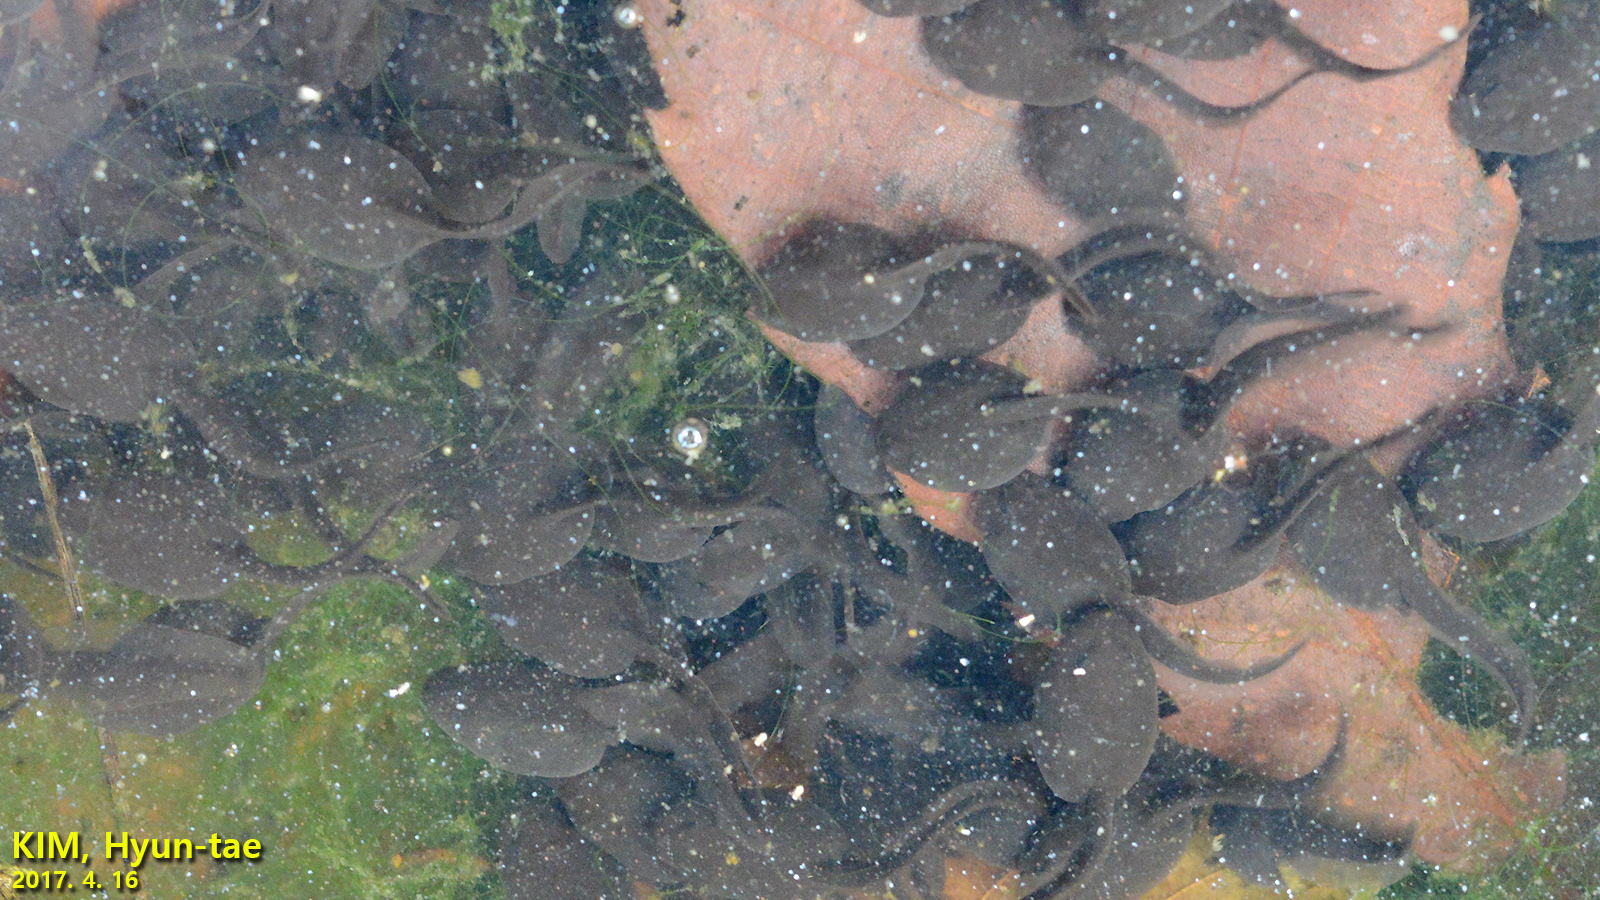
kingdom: Animalia
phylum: Chordata
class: Amphibia
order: Anura
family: Bufonidae
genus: Bufo
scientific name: Bufo gargarizans
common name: Asiatic toad
